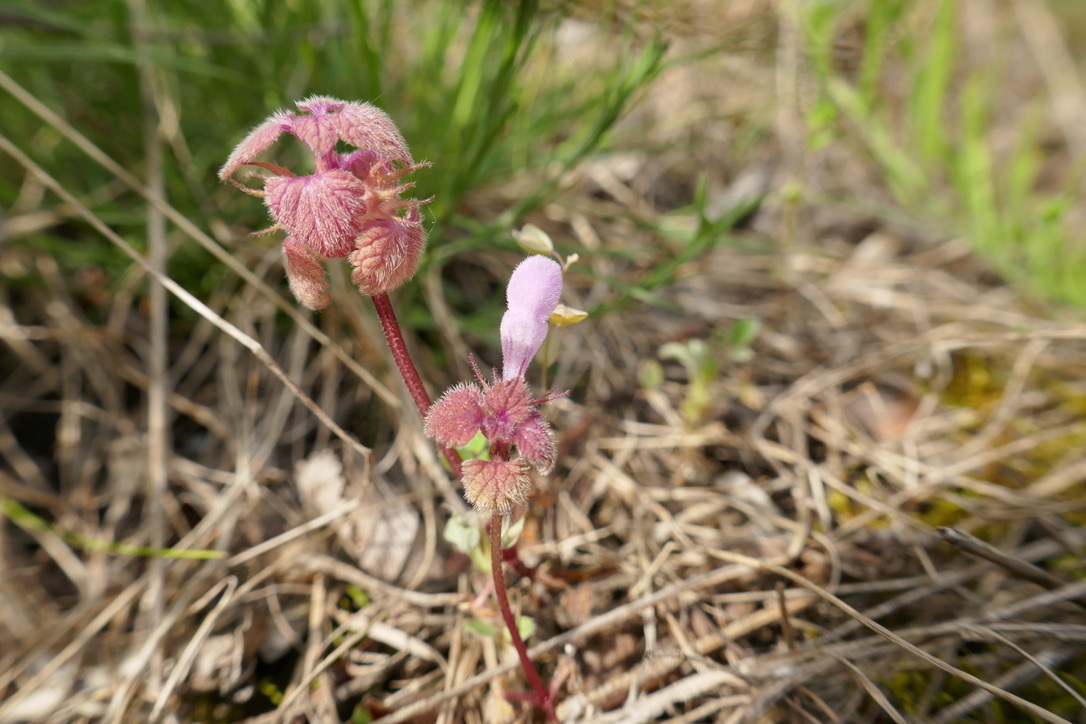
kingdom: Plantae
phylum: Tracheophyta
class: Magnoliopsida
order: Lamiales
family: Lamiaceae
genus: Lamium
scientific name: Lamium purpureum
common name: Red dead-nettle
